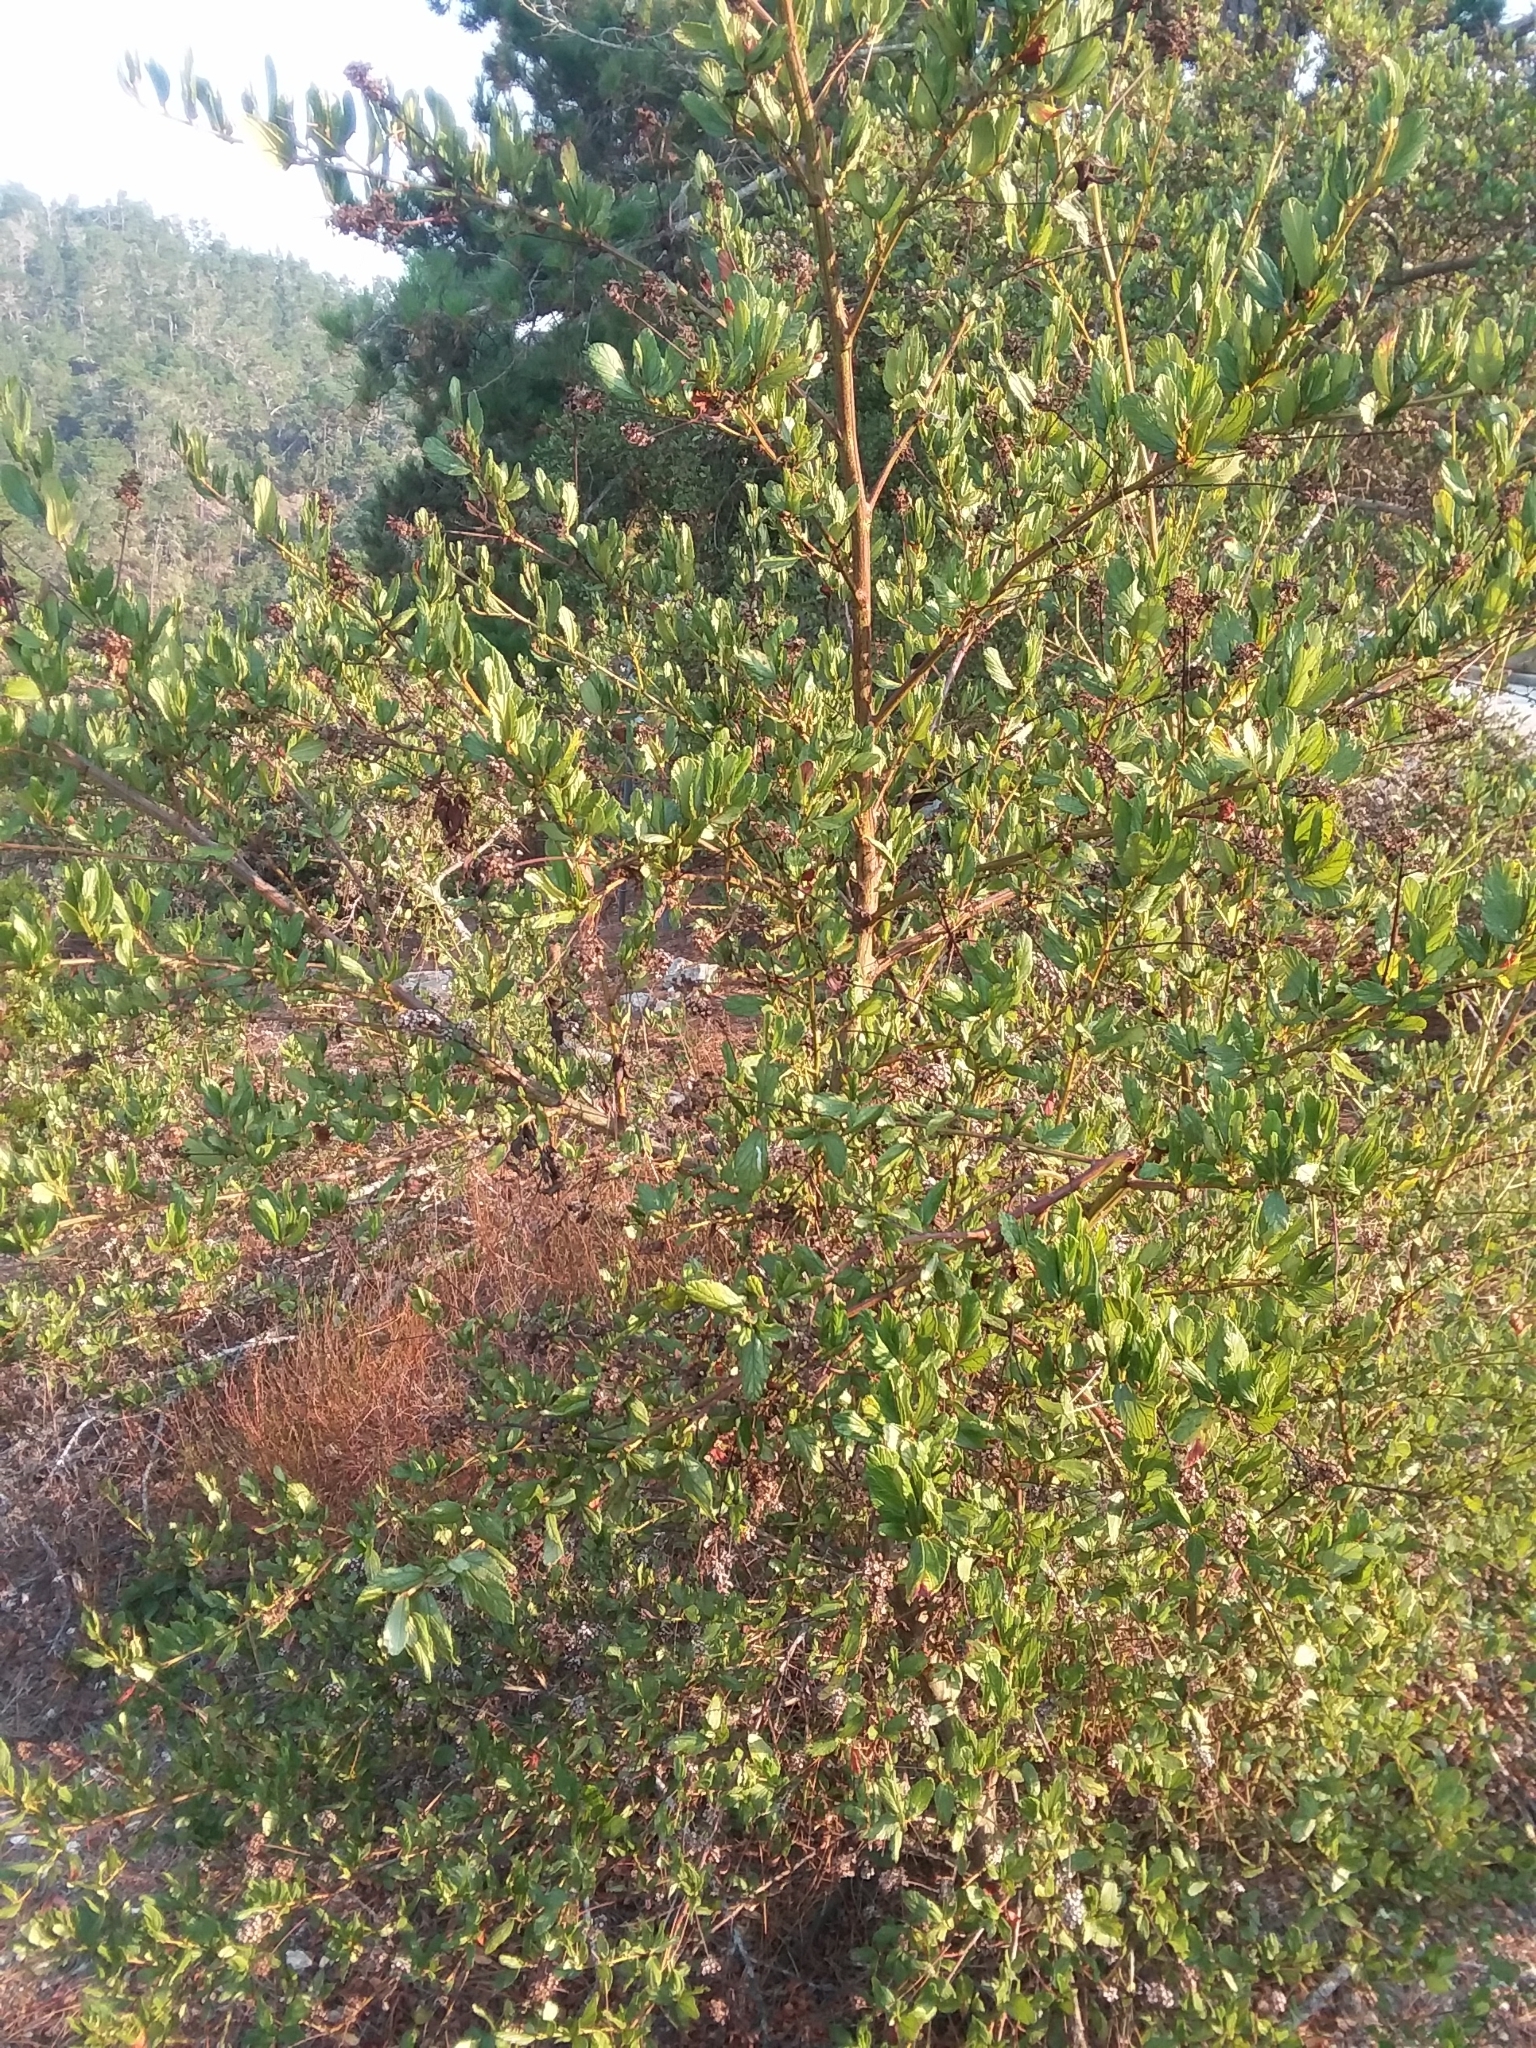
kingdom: Plantae
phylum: Tracheophyta
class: Magnoliopsida
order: Rosales
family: Rhamnaceae
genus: Ceanothus
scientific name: Ceanothus griseus
